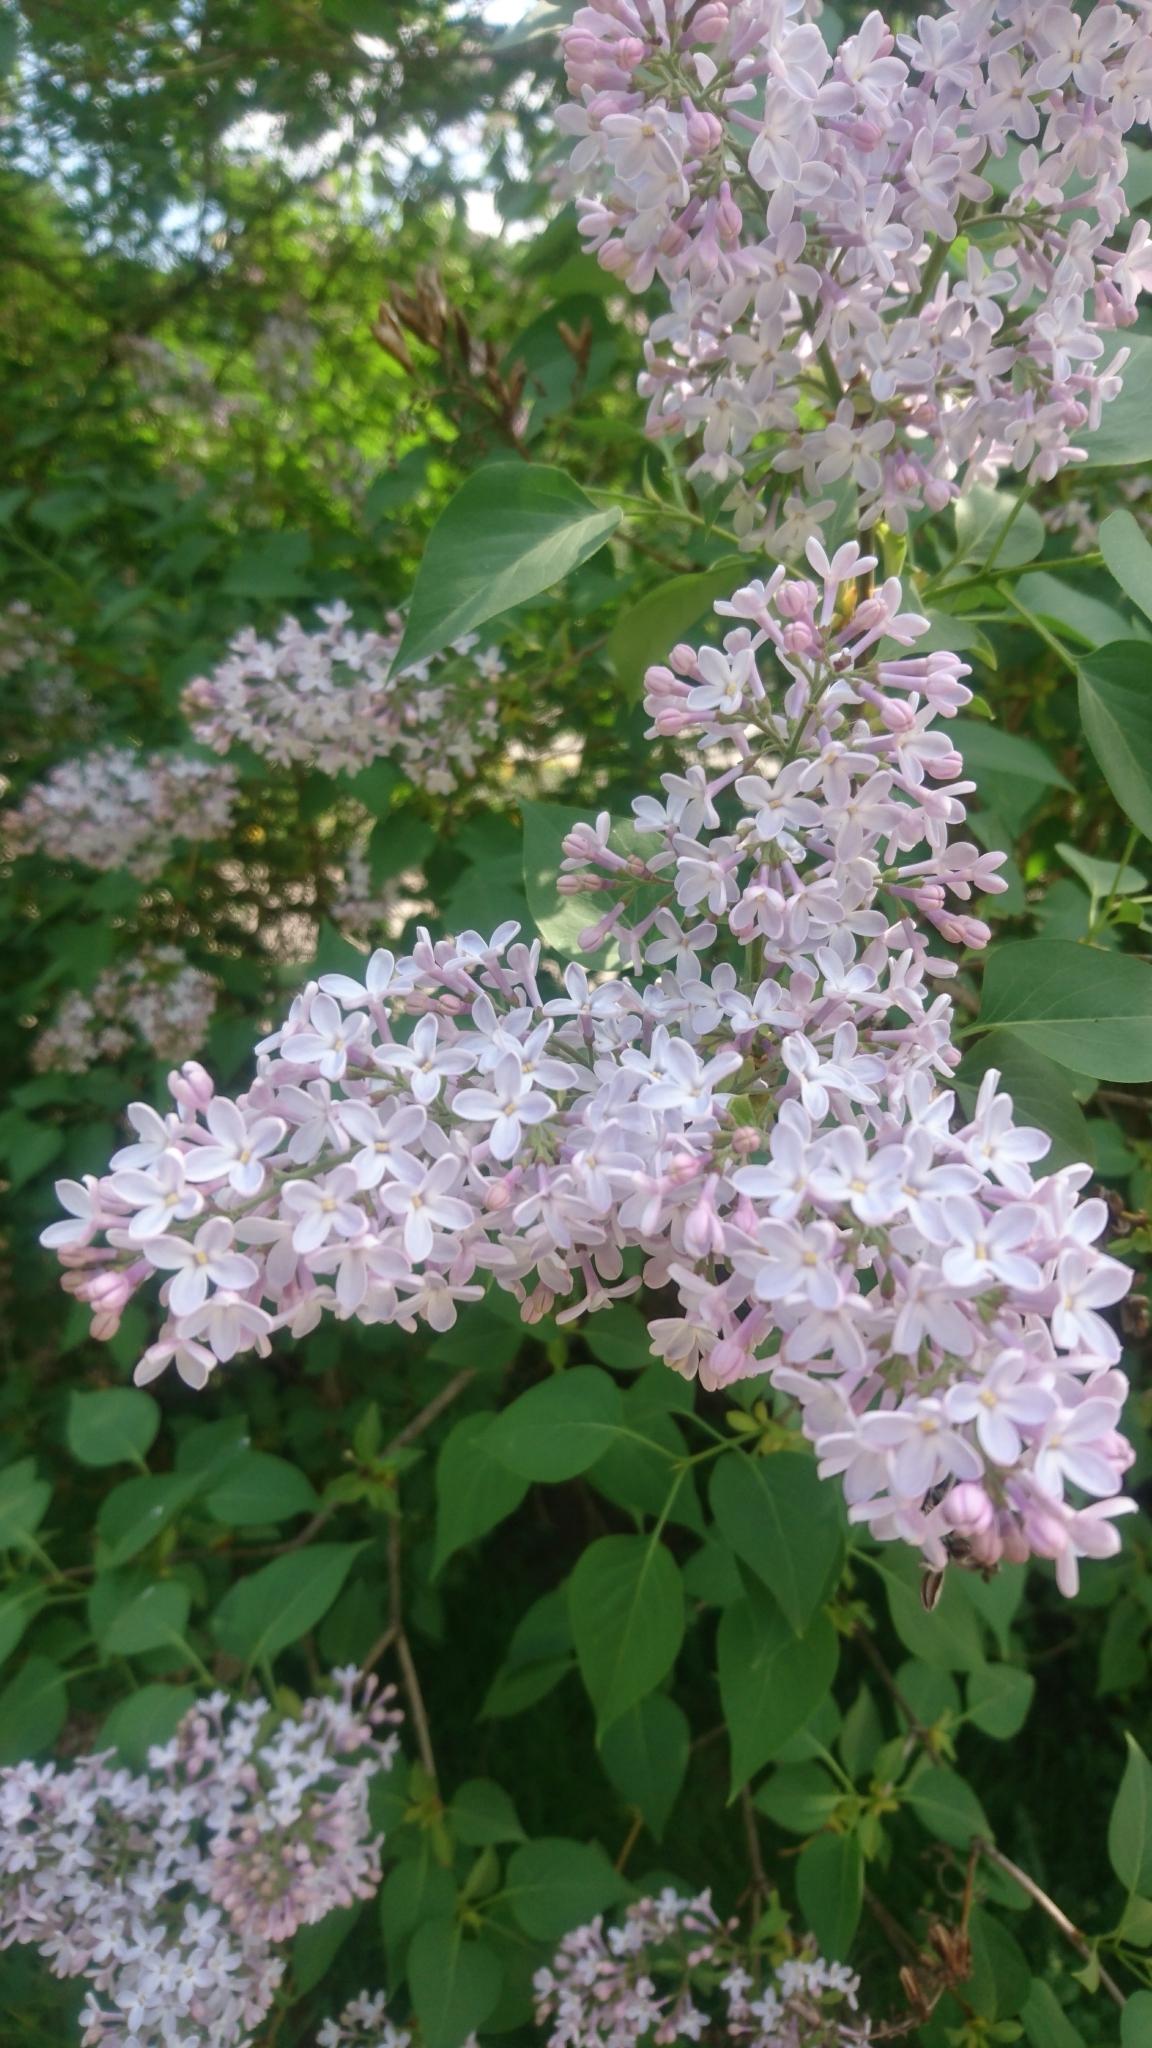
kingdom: Plantae
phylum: Tracheophyta
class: Magnoliopsida
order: Lamiales
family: Oleaceae
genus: Syringa
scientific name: Syringa vulgaris
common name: Common lilac
